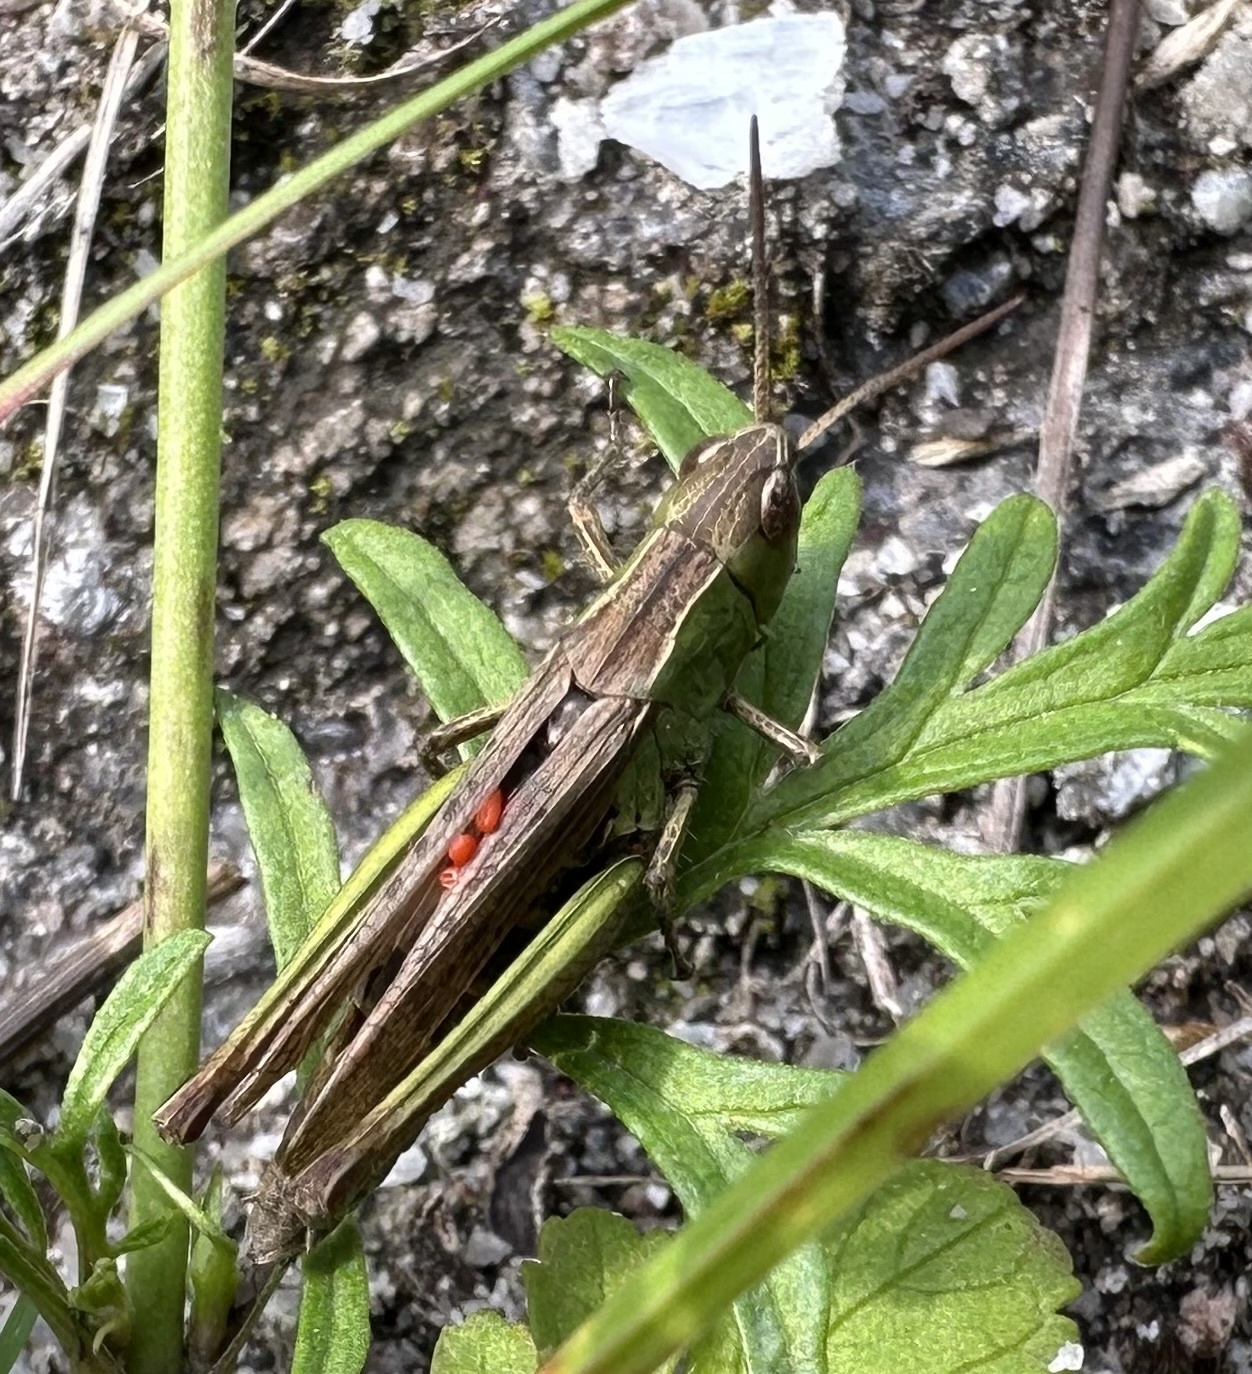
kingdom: Animalia
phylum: Arthropoda
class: Insecta
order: Orthoptera
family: Acrididae
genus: Chorthippus
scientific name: Chorthippus dorsatus
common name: Steppe grasshopper
